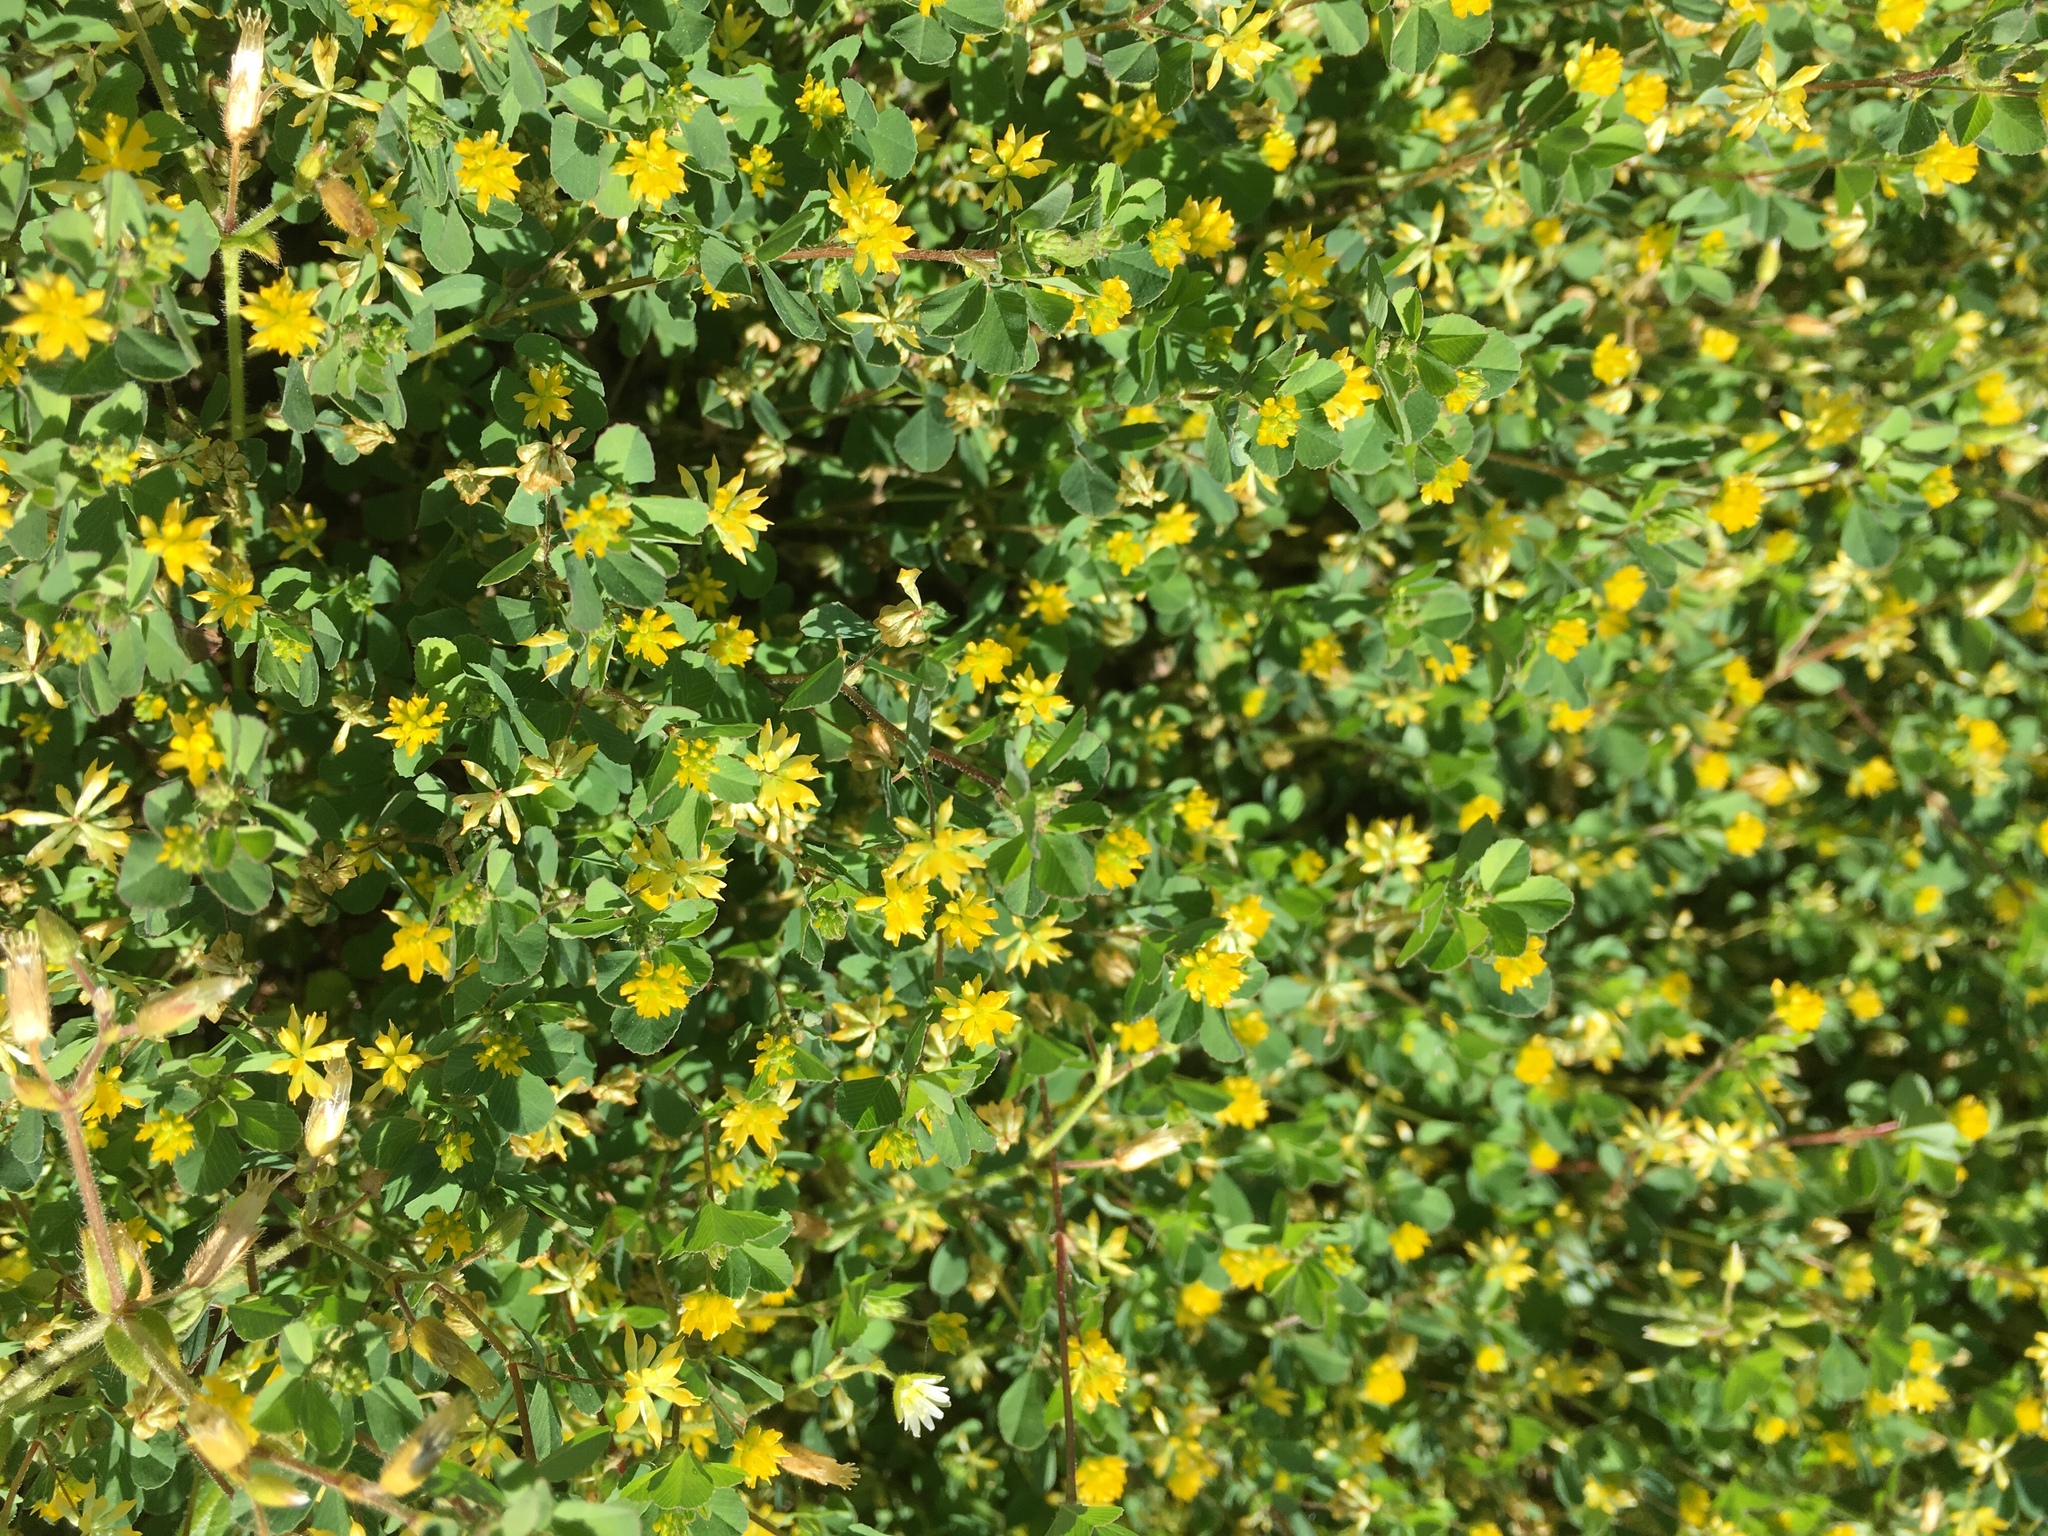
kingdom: Plantae
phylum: Tracheophyta
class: Magnoliopsida
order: Fabales
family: Fabaceae
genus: Trifolium
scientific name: Trifolium dubium
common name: Suckling clover
